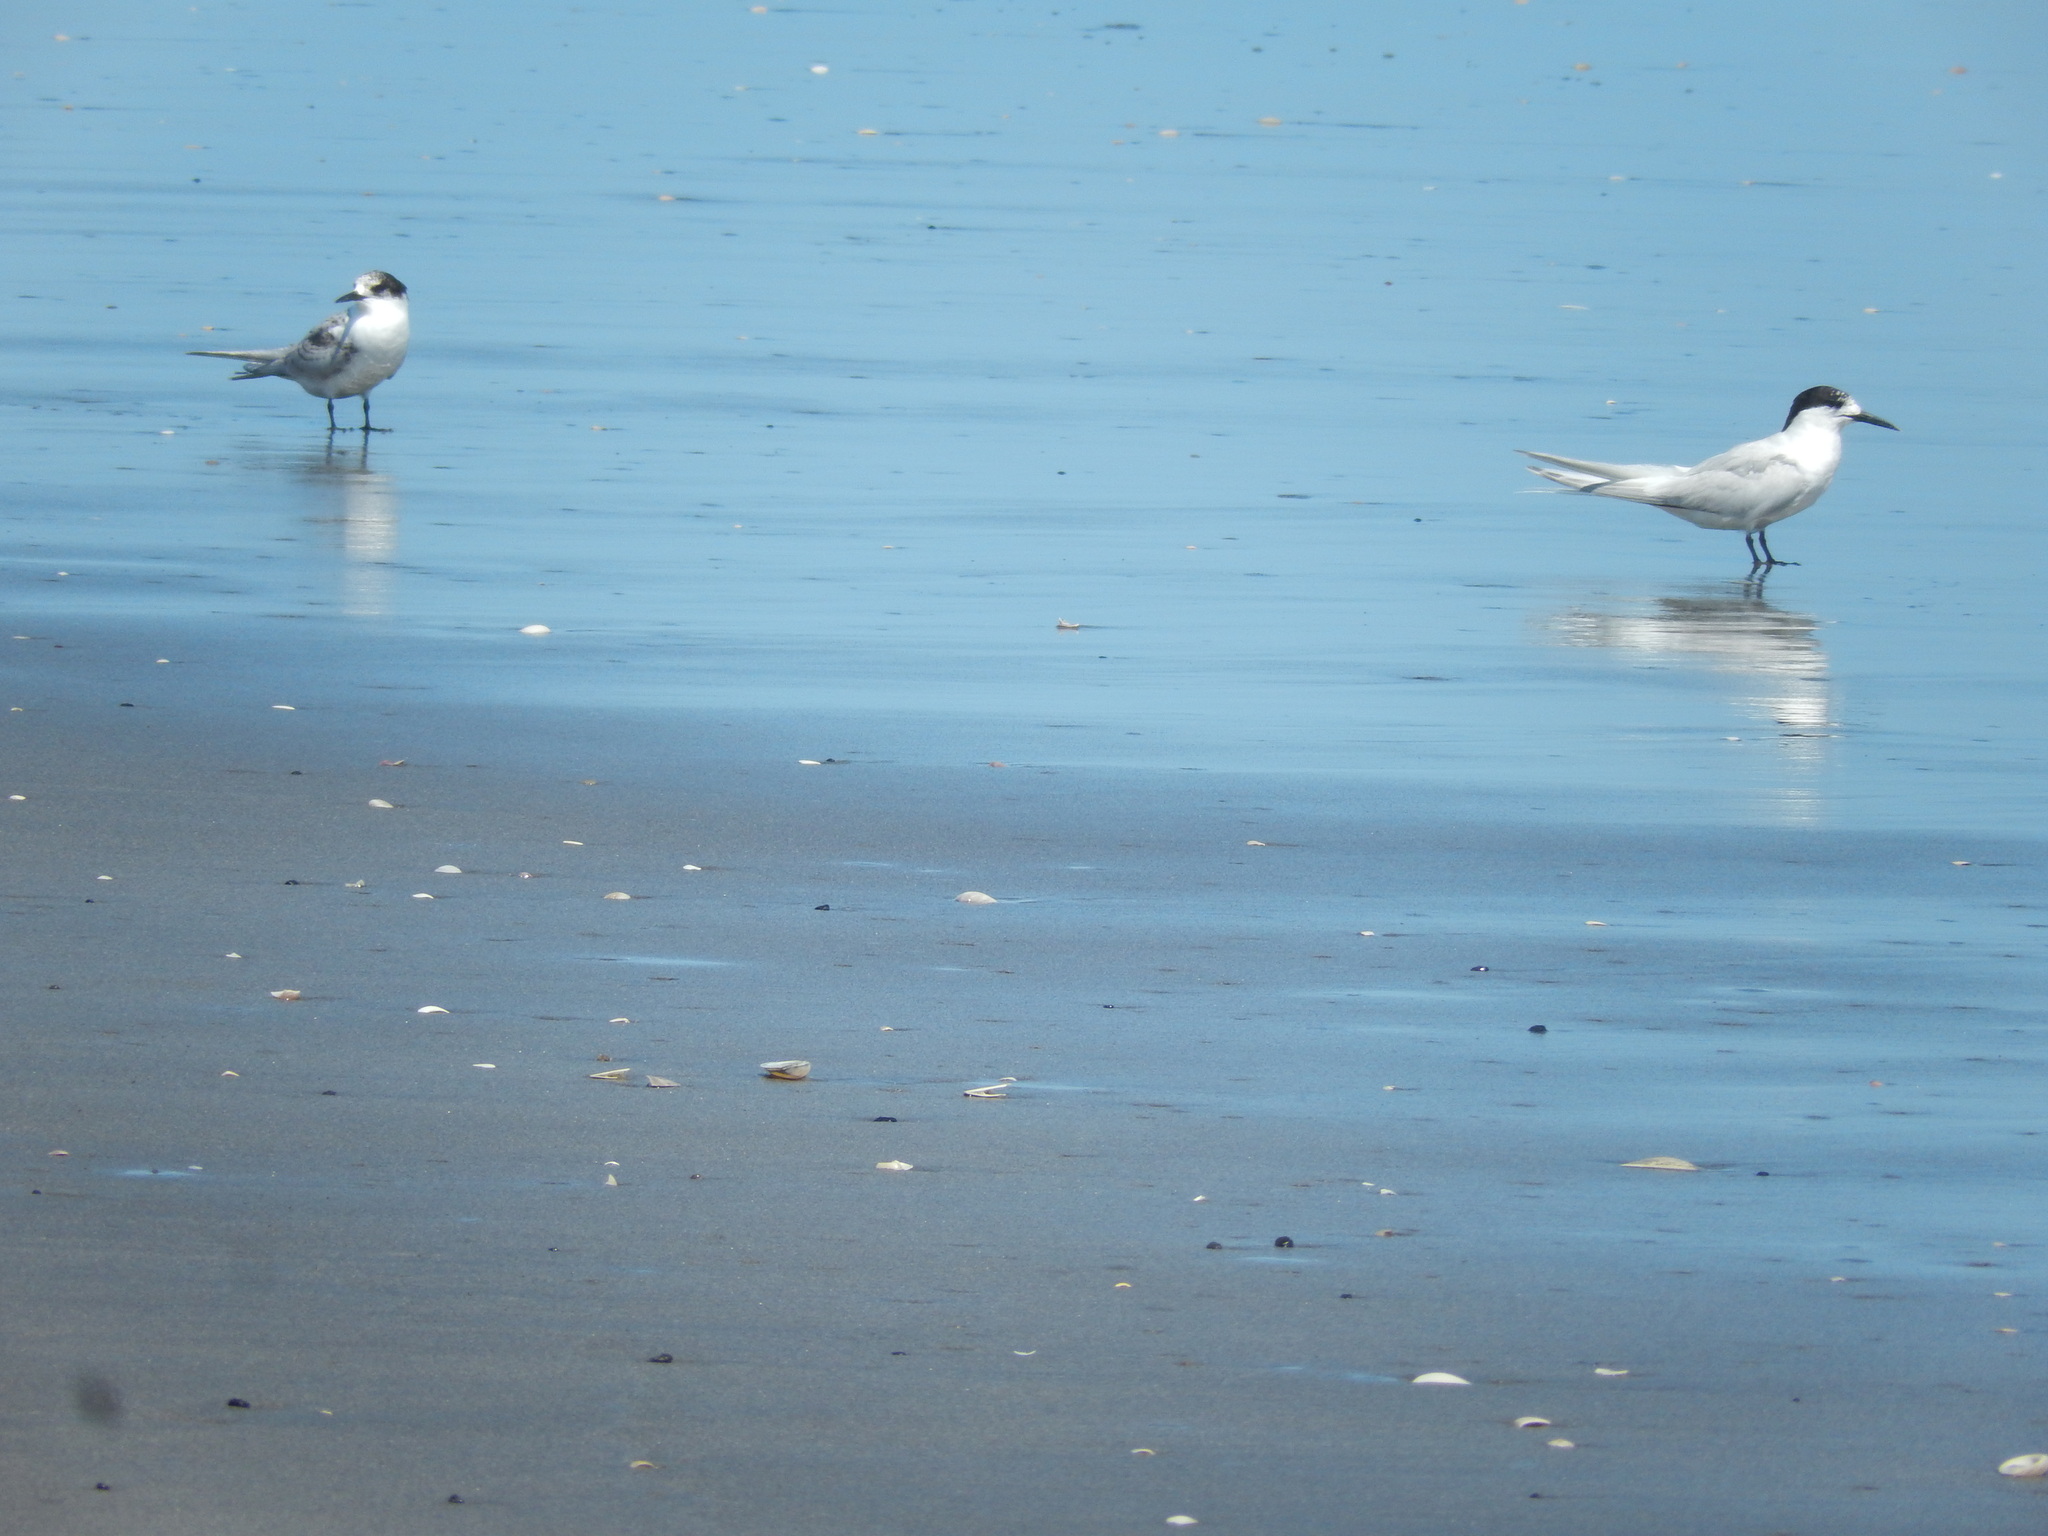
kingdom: Animalia
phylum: Chordata
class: Aves
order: Charadriiformes
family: Laridae
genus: Sterna
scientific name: Sterna striata
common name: White-fronted tern
